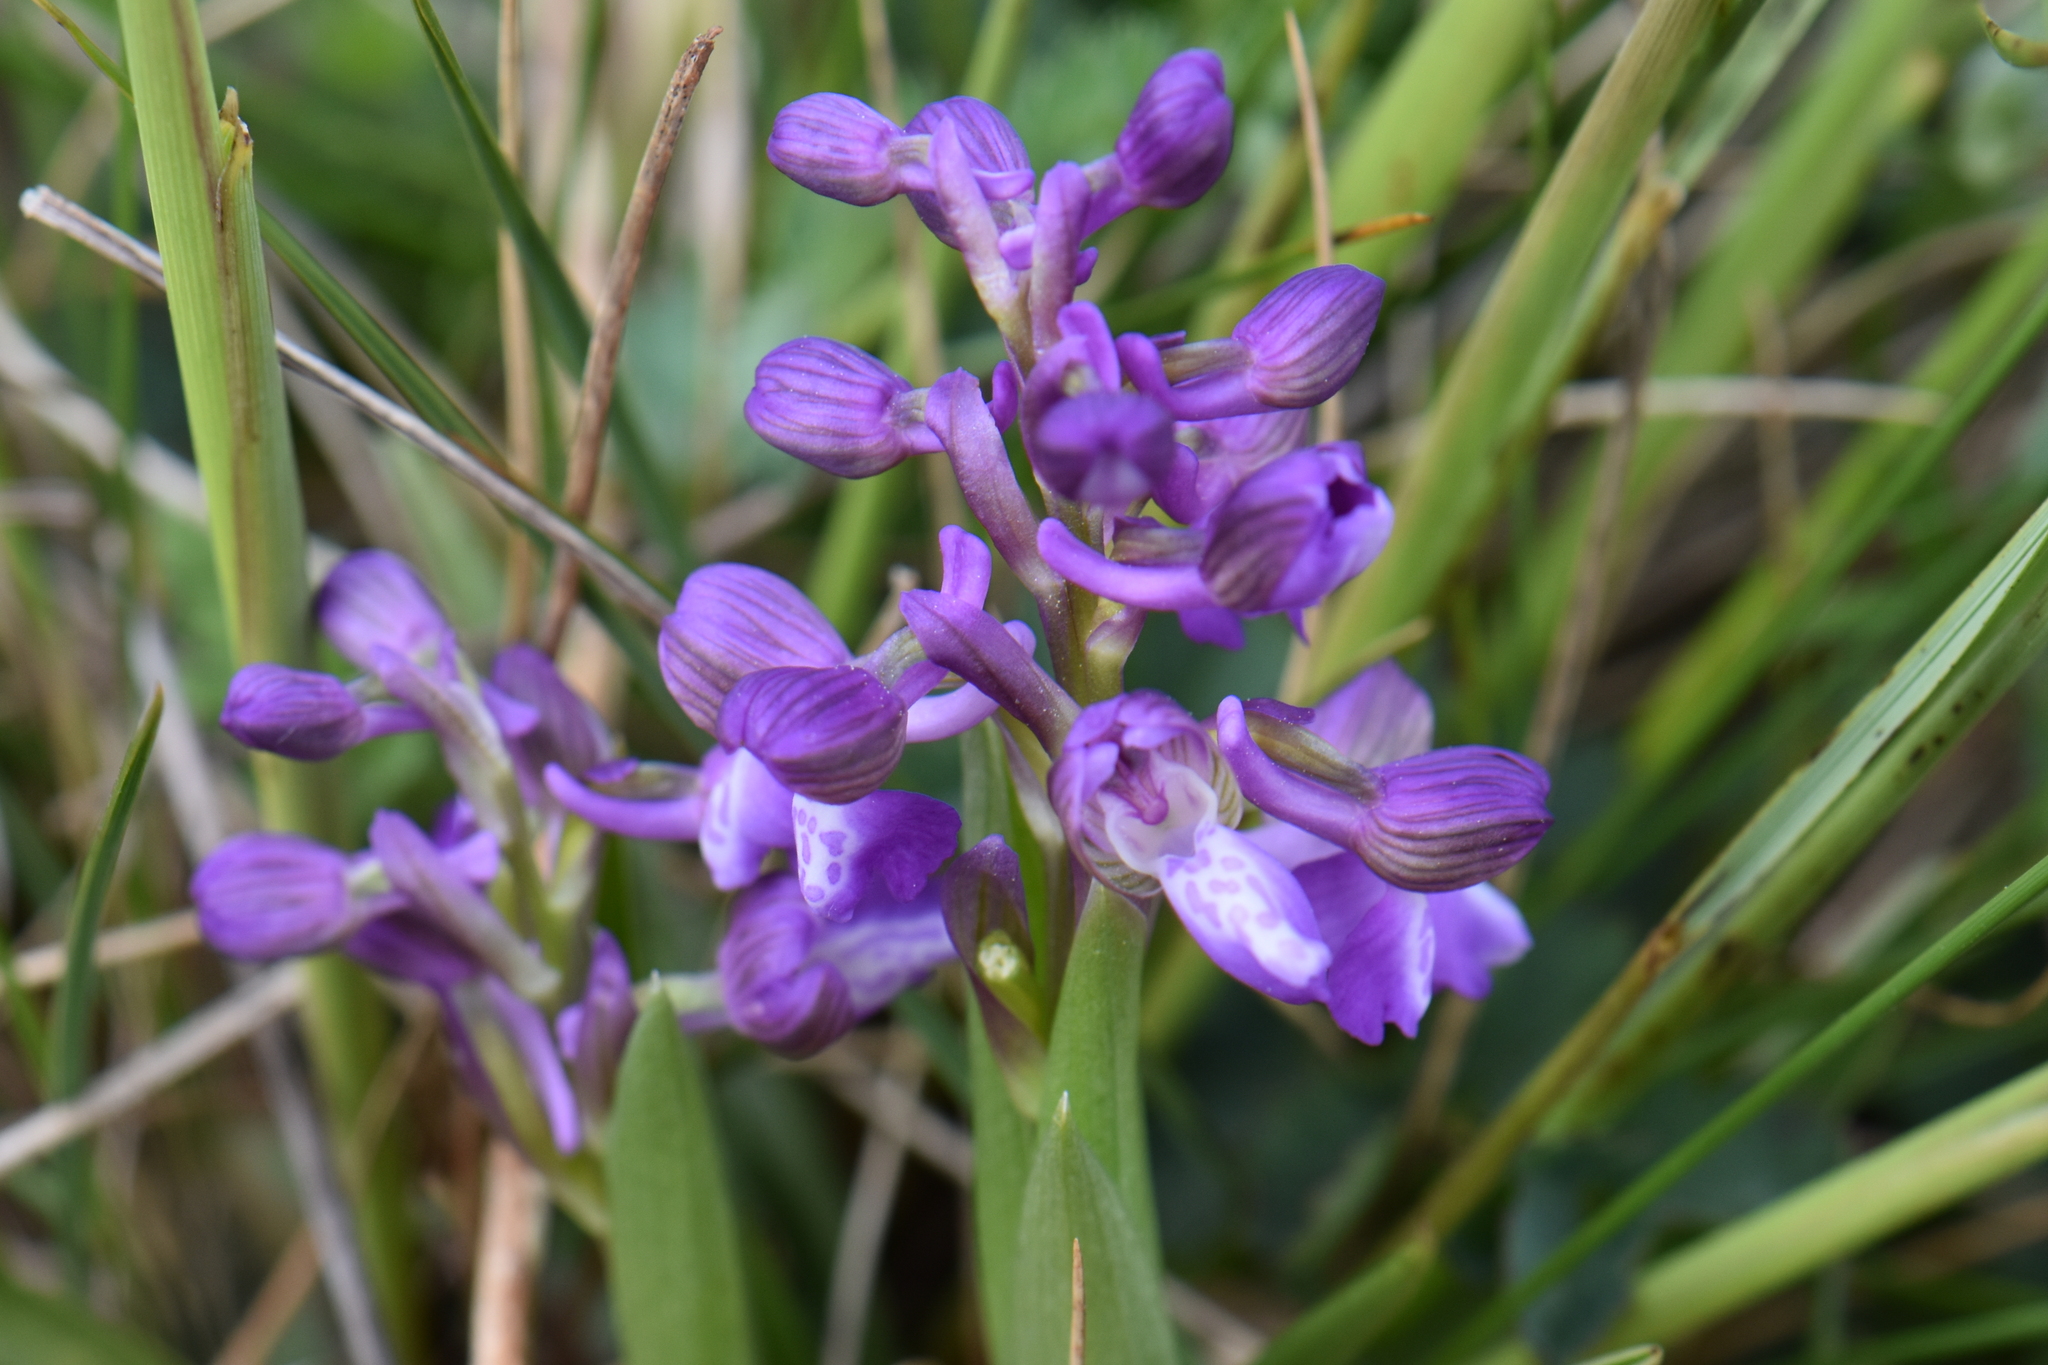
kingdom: Plantae
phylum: Tracheophyta
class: Liliopsida
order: Asparagales
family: Orchidaceae
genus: Anacamptis
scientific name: Anacamptis morio
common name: Green-winged orchid
